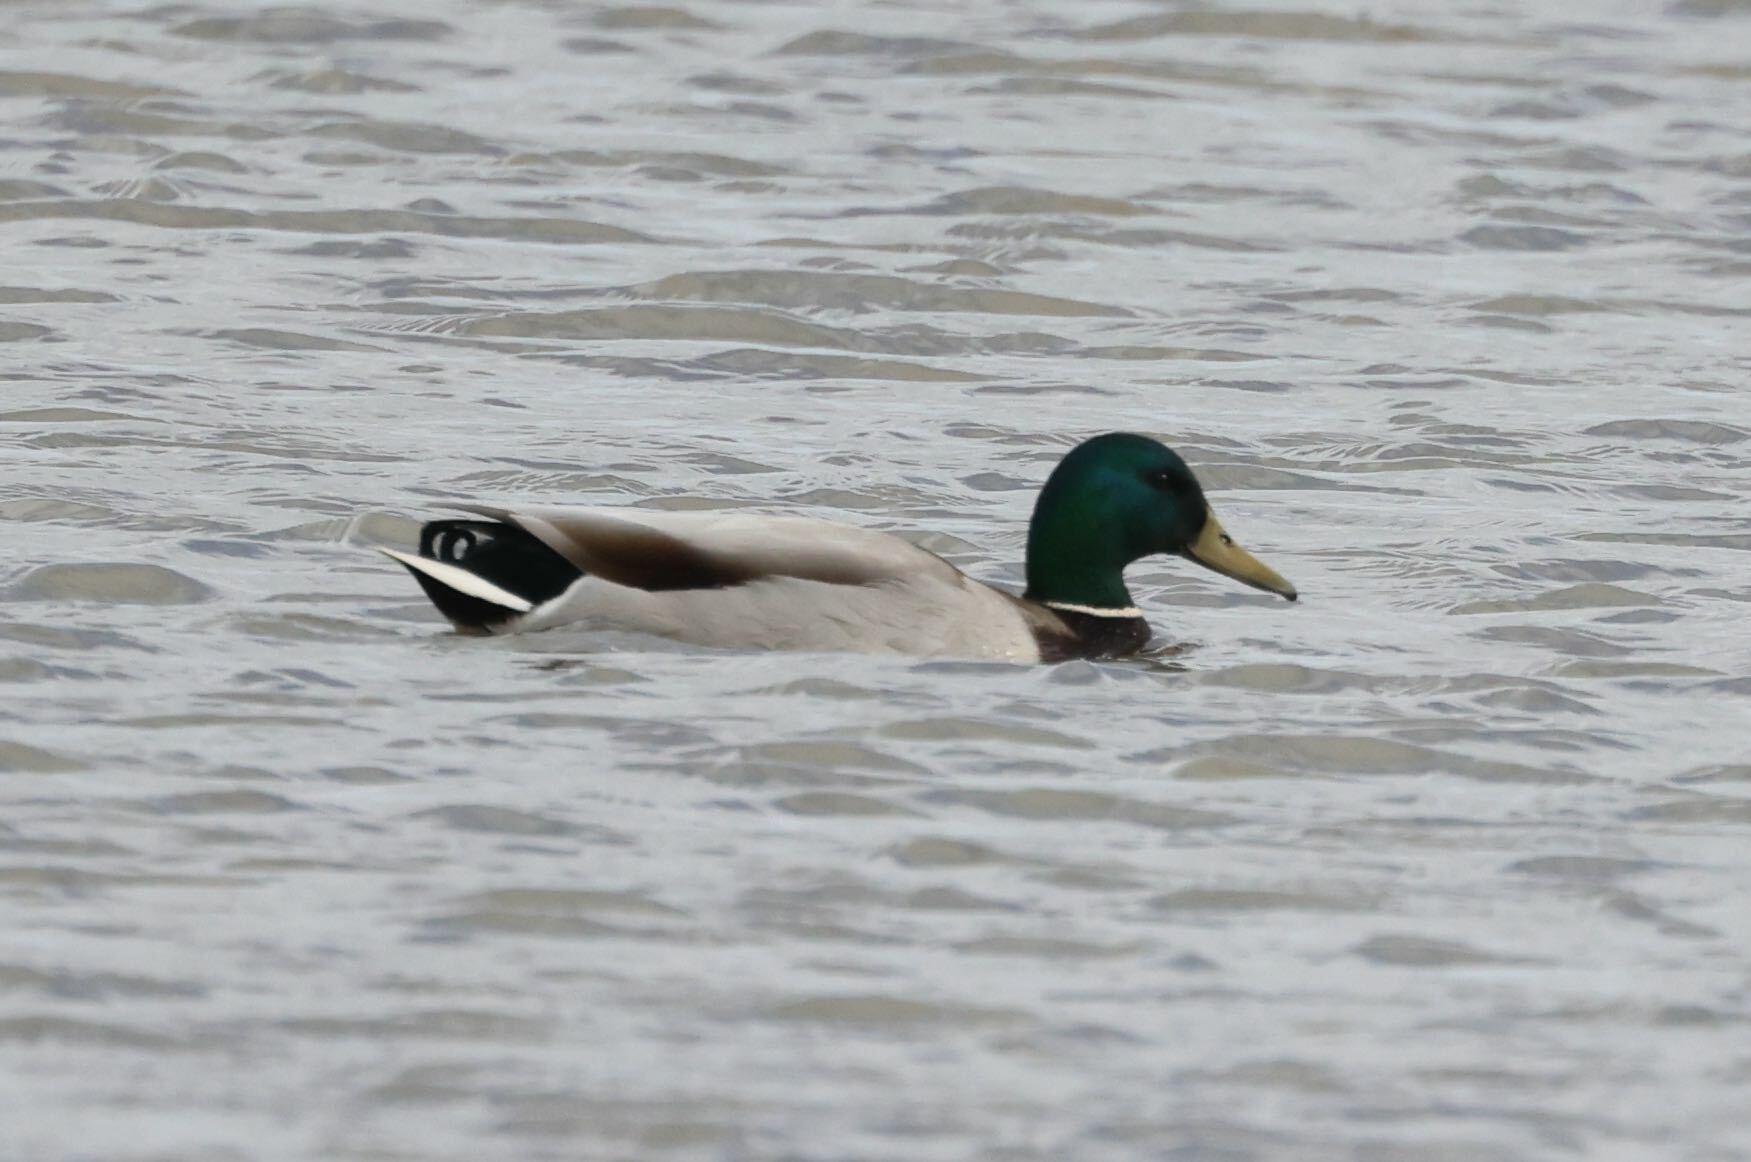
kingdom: Animalia
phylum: Chordata
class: Aves
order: Anseriformes
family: Anatidae
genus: Anas
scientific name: Anas platyrhynchos
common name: Mallard
